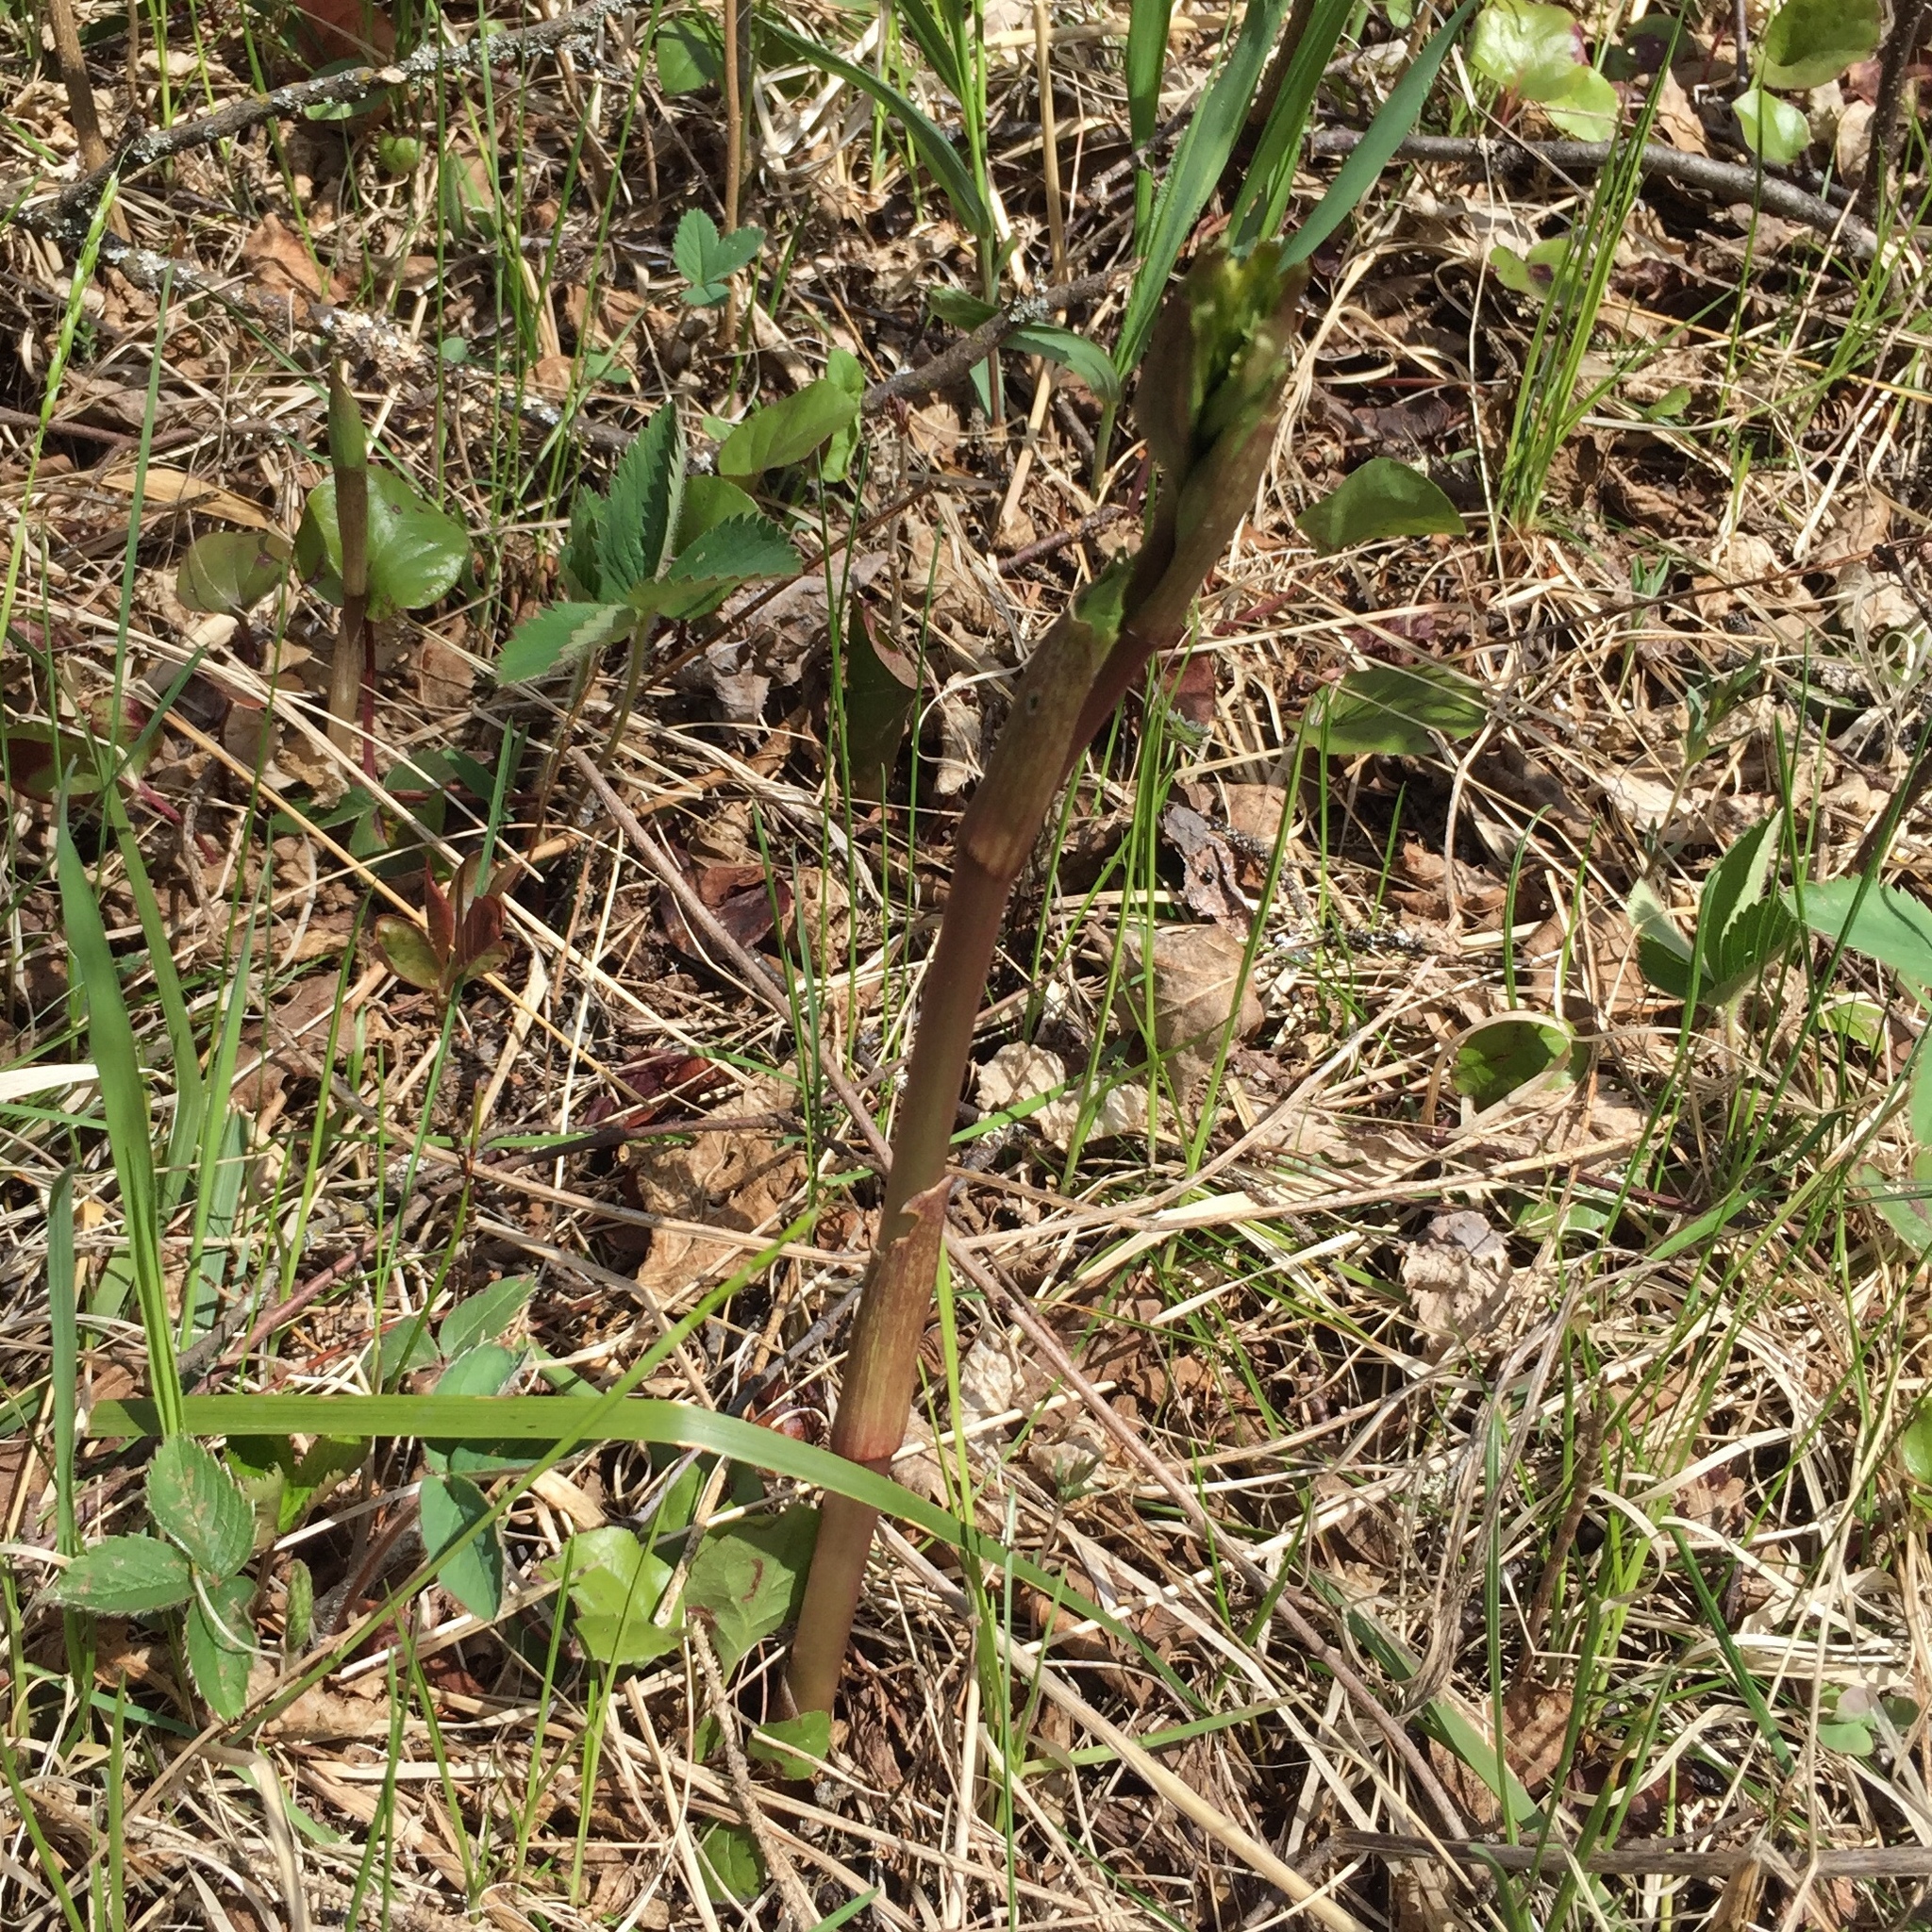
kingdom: Plantae
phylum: Tracheophyta
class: Liliopsida
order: Liliales
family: Liliaceae
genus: Prosartes
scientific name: Prosartes trachycarpa
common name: Rough-fruit fairy-bells
